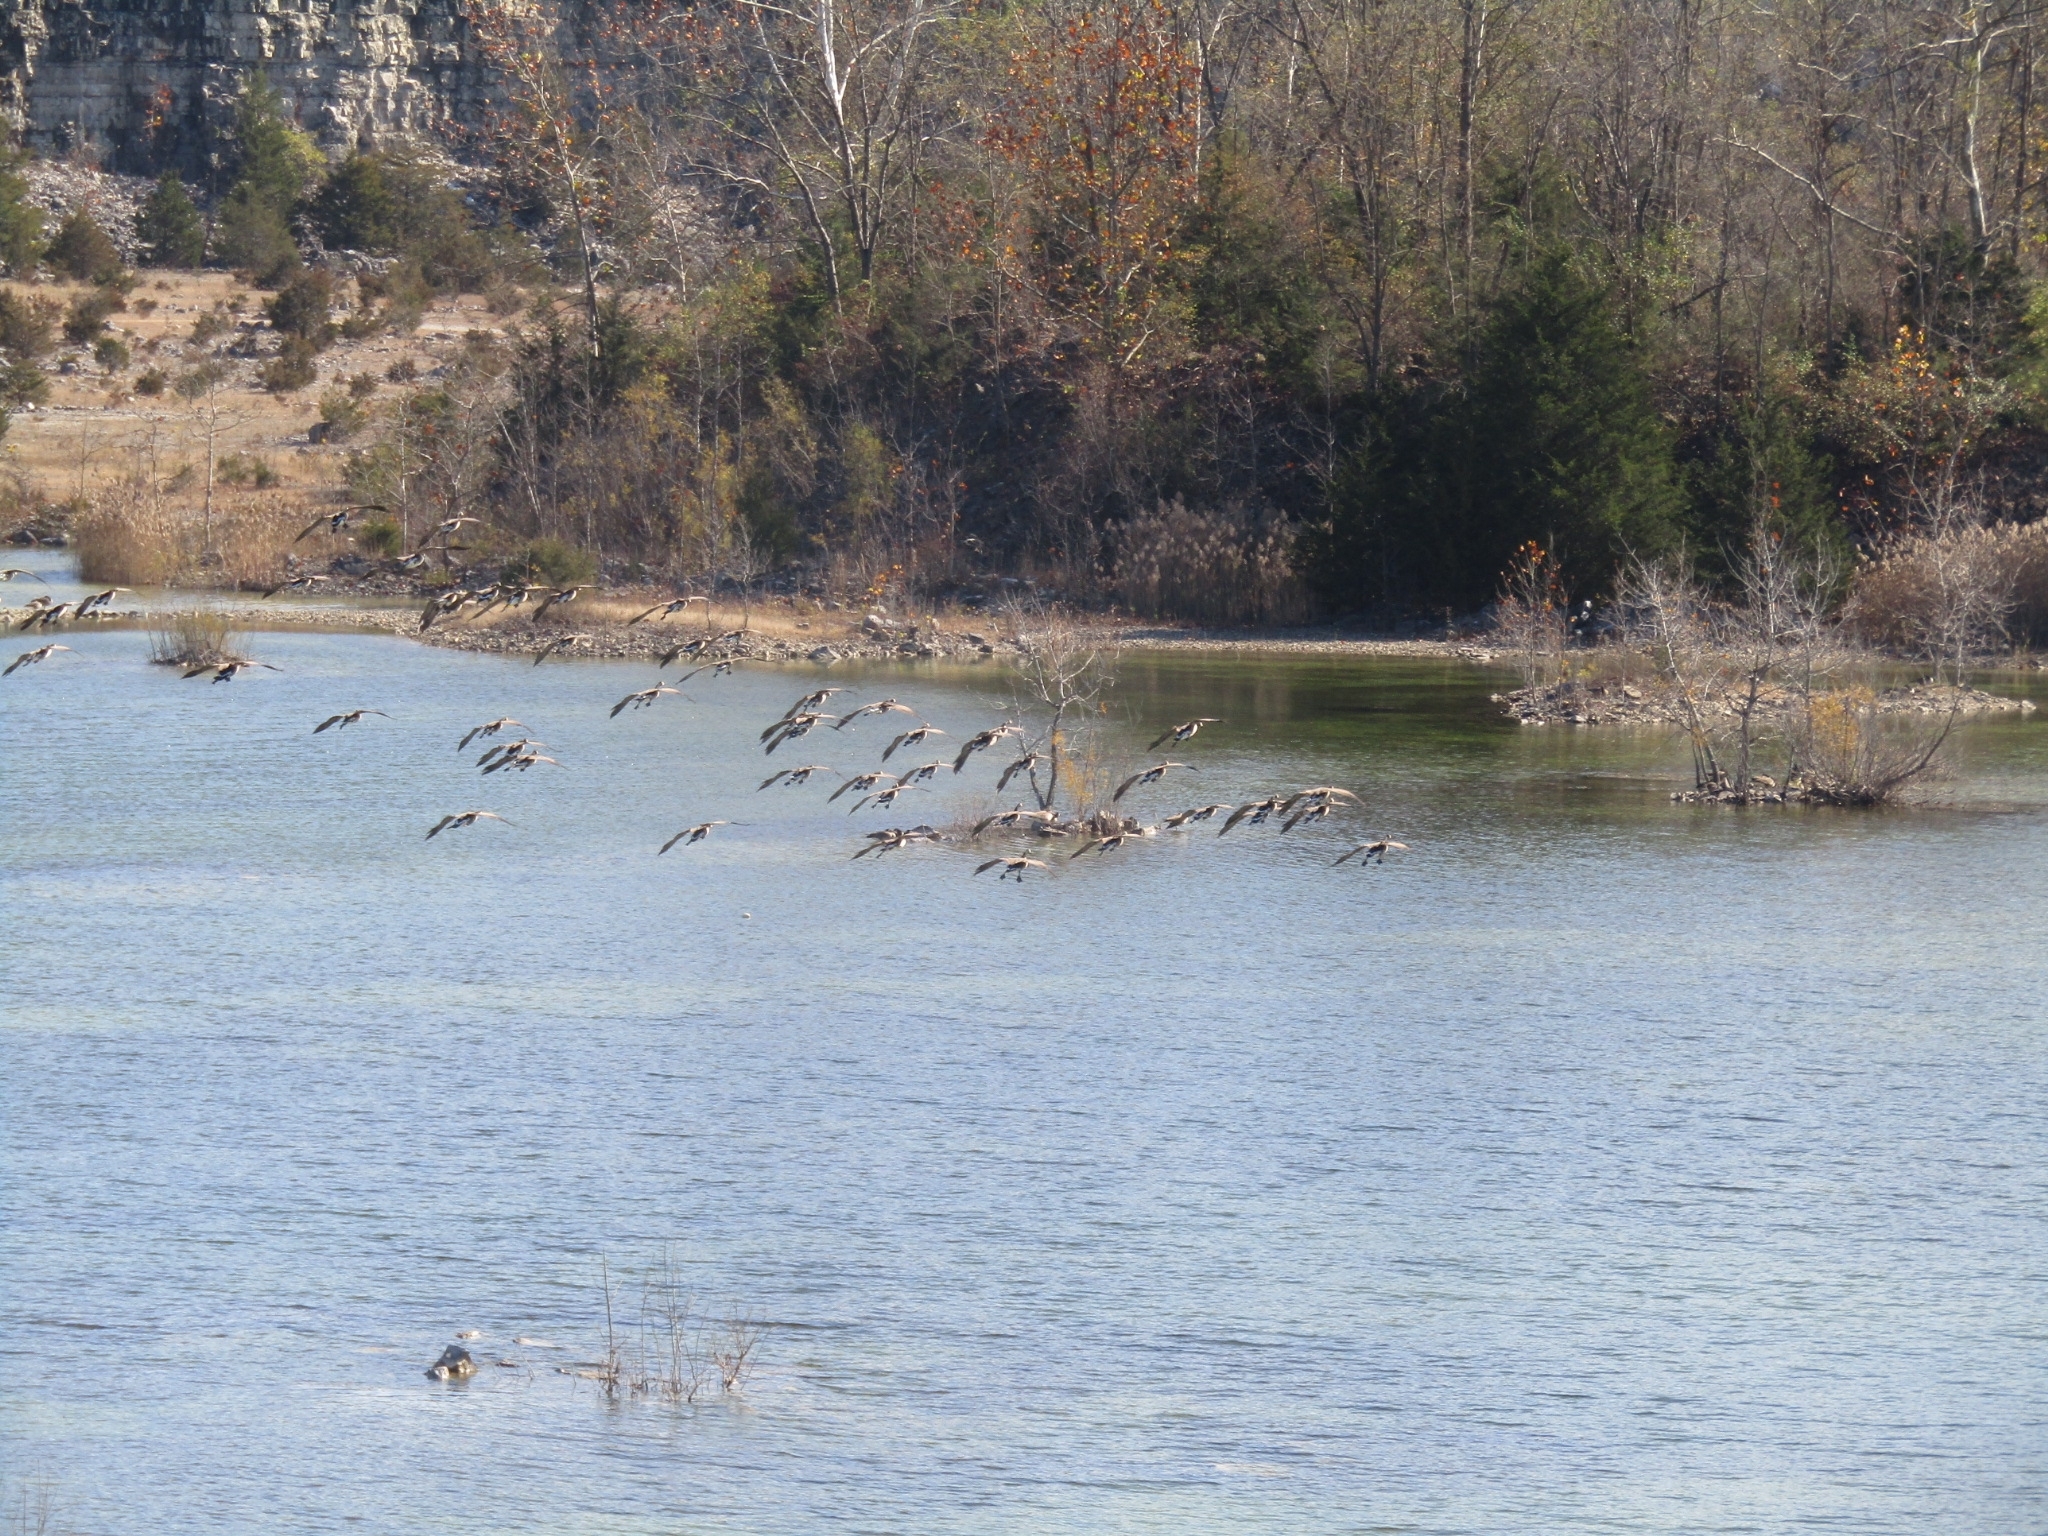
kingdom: Animalia
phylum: Chordata
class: Aves
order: Anseriformes
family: Anatidae
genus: Branta
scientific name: Branta canadensis
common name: Canada goose
